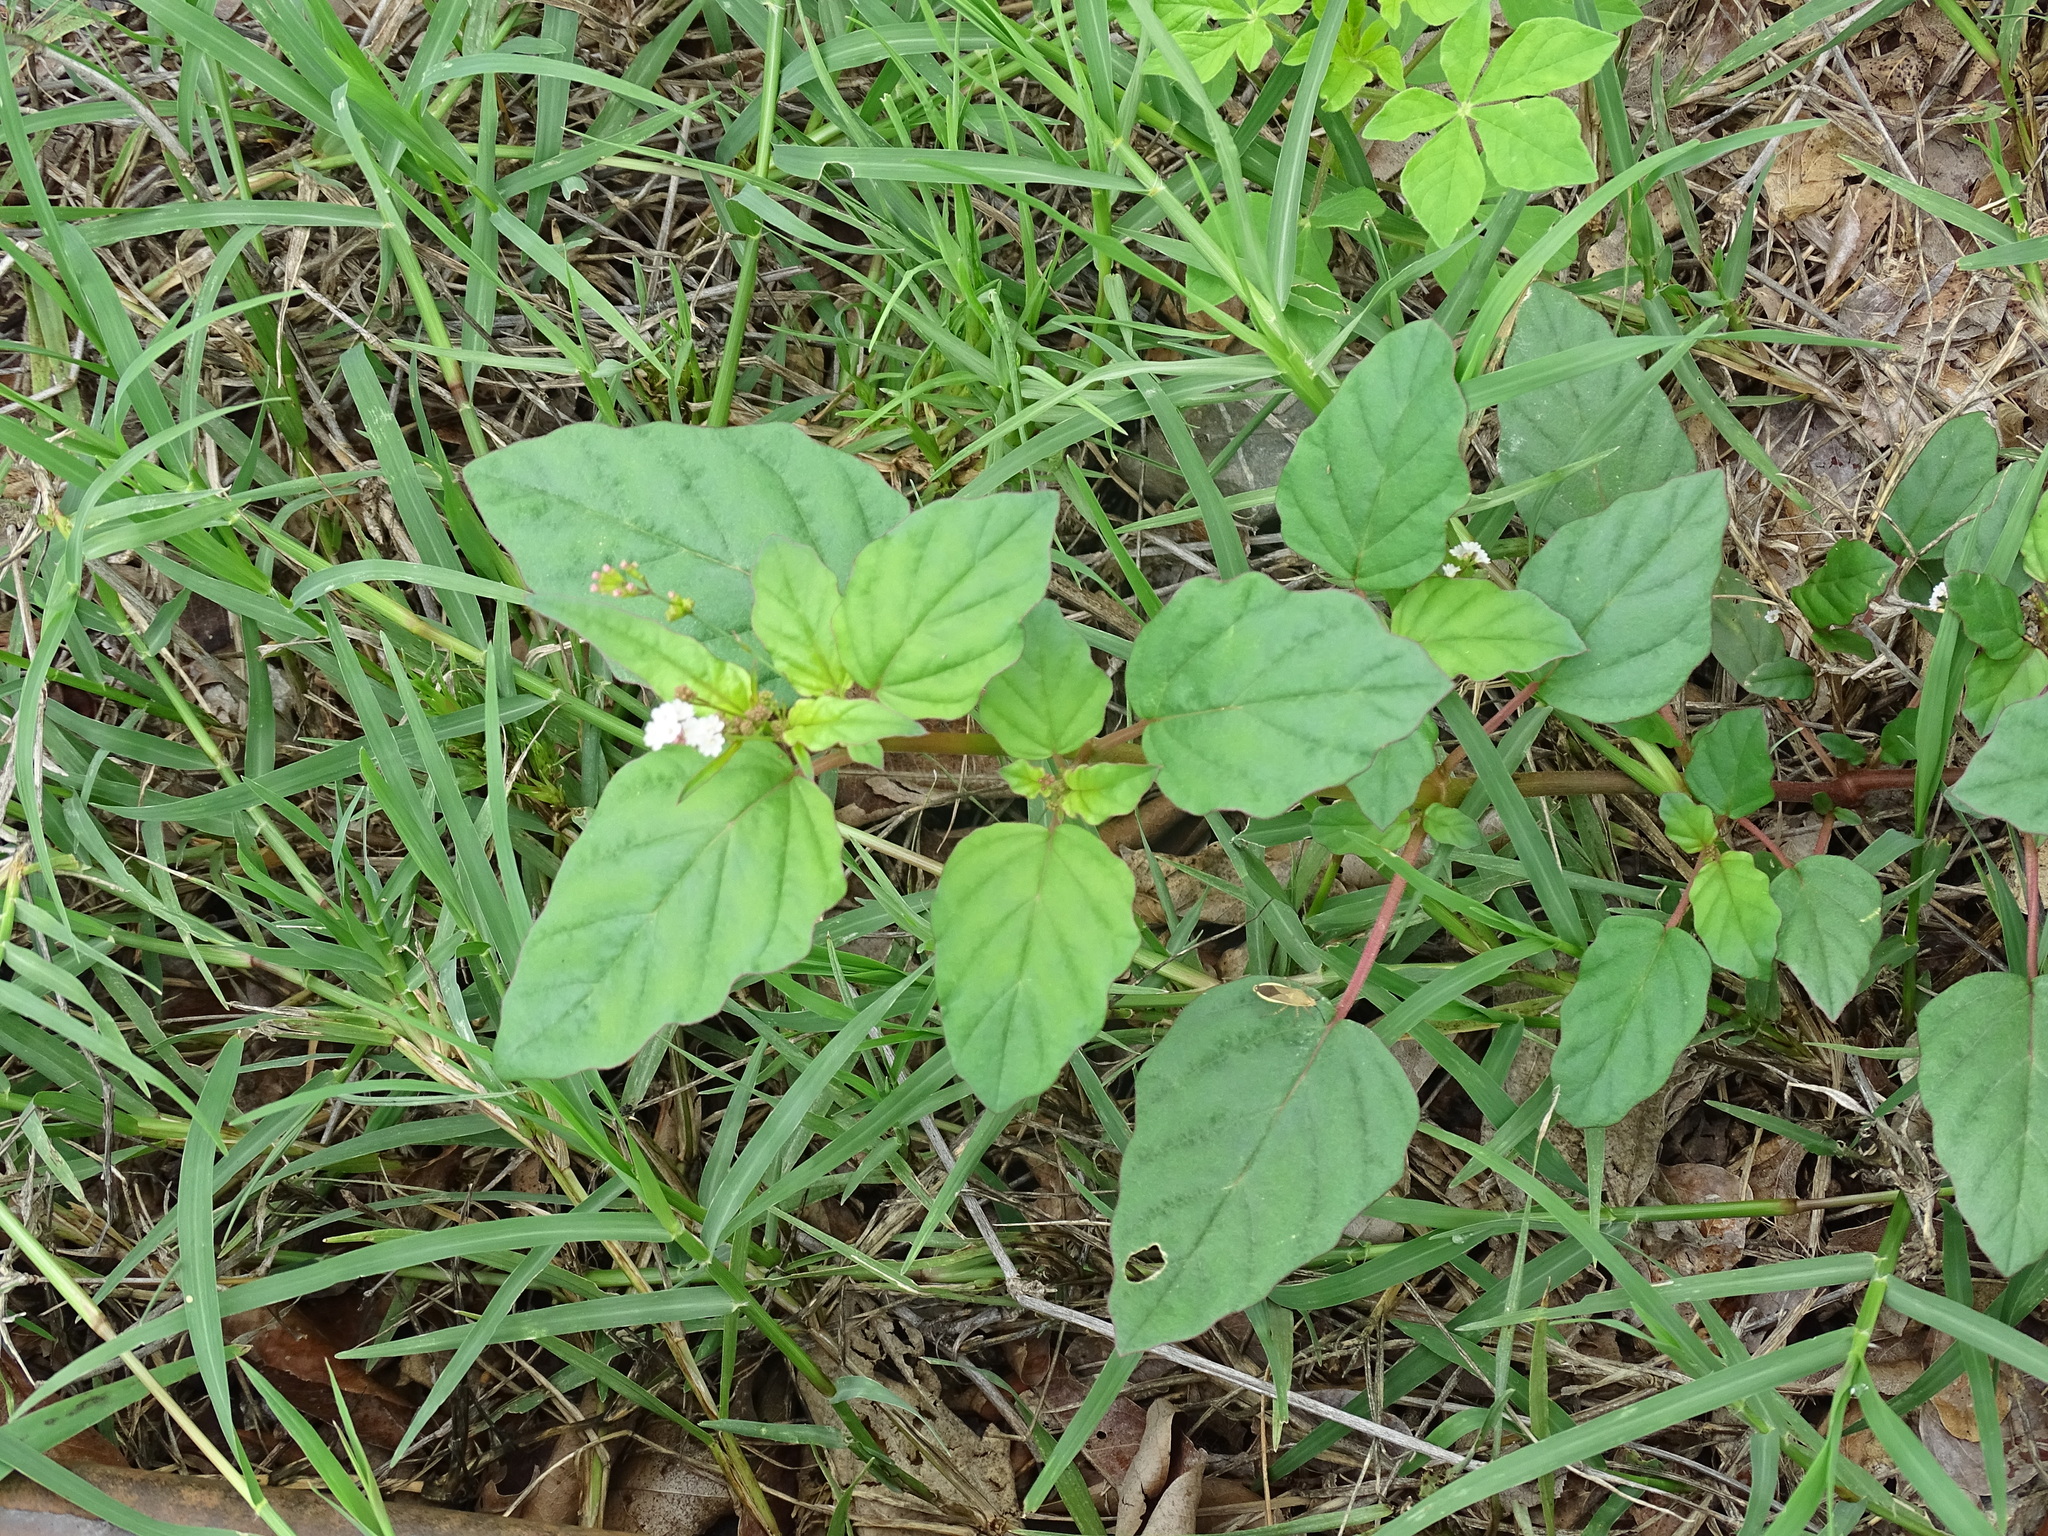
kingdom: Plantae
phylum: Tracheophyta
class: Magnoliopsida
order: Caryophyllales
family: Nyctaginaceae
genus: Boerhavia
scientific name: Boerhavia erecta
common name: Erect spiderling
